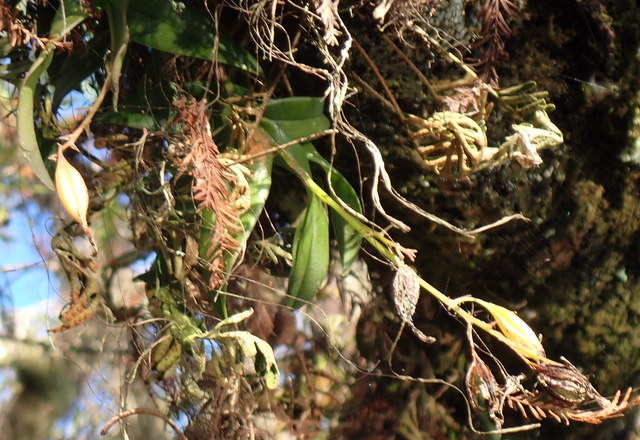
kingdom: Plantae
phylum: Tracheophyta
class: Liliopsida
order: Asparagales
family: Orchidaceae
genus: Epidendrum
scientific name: Epidendrum conopseum
